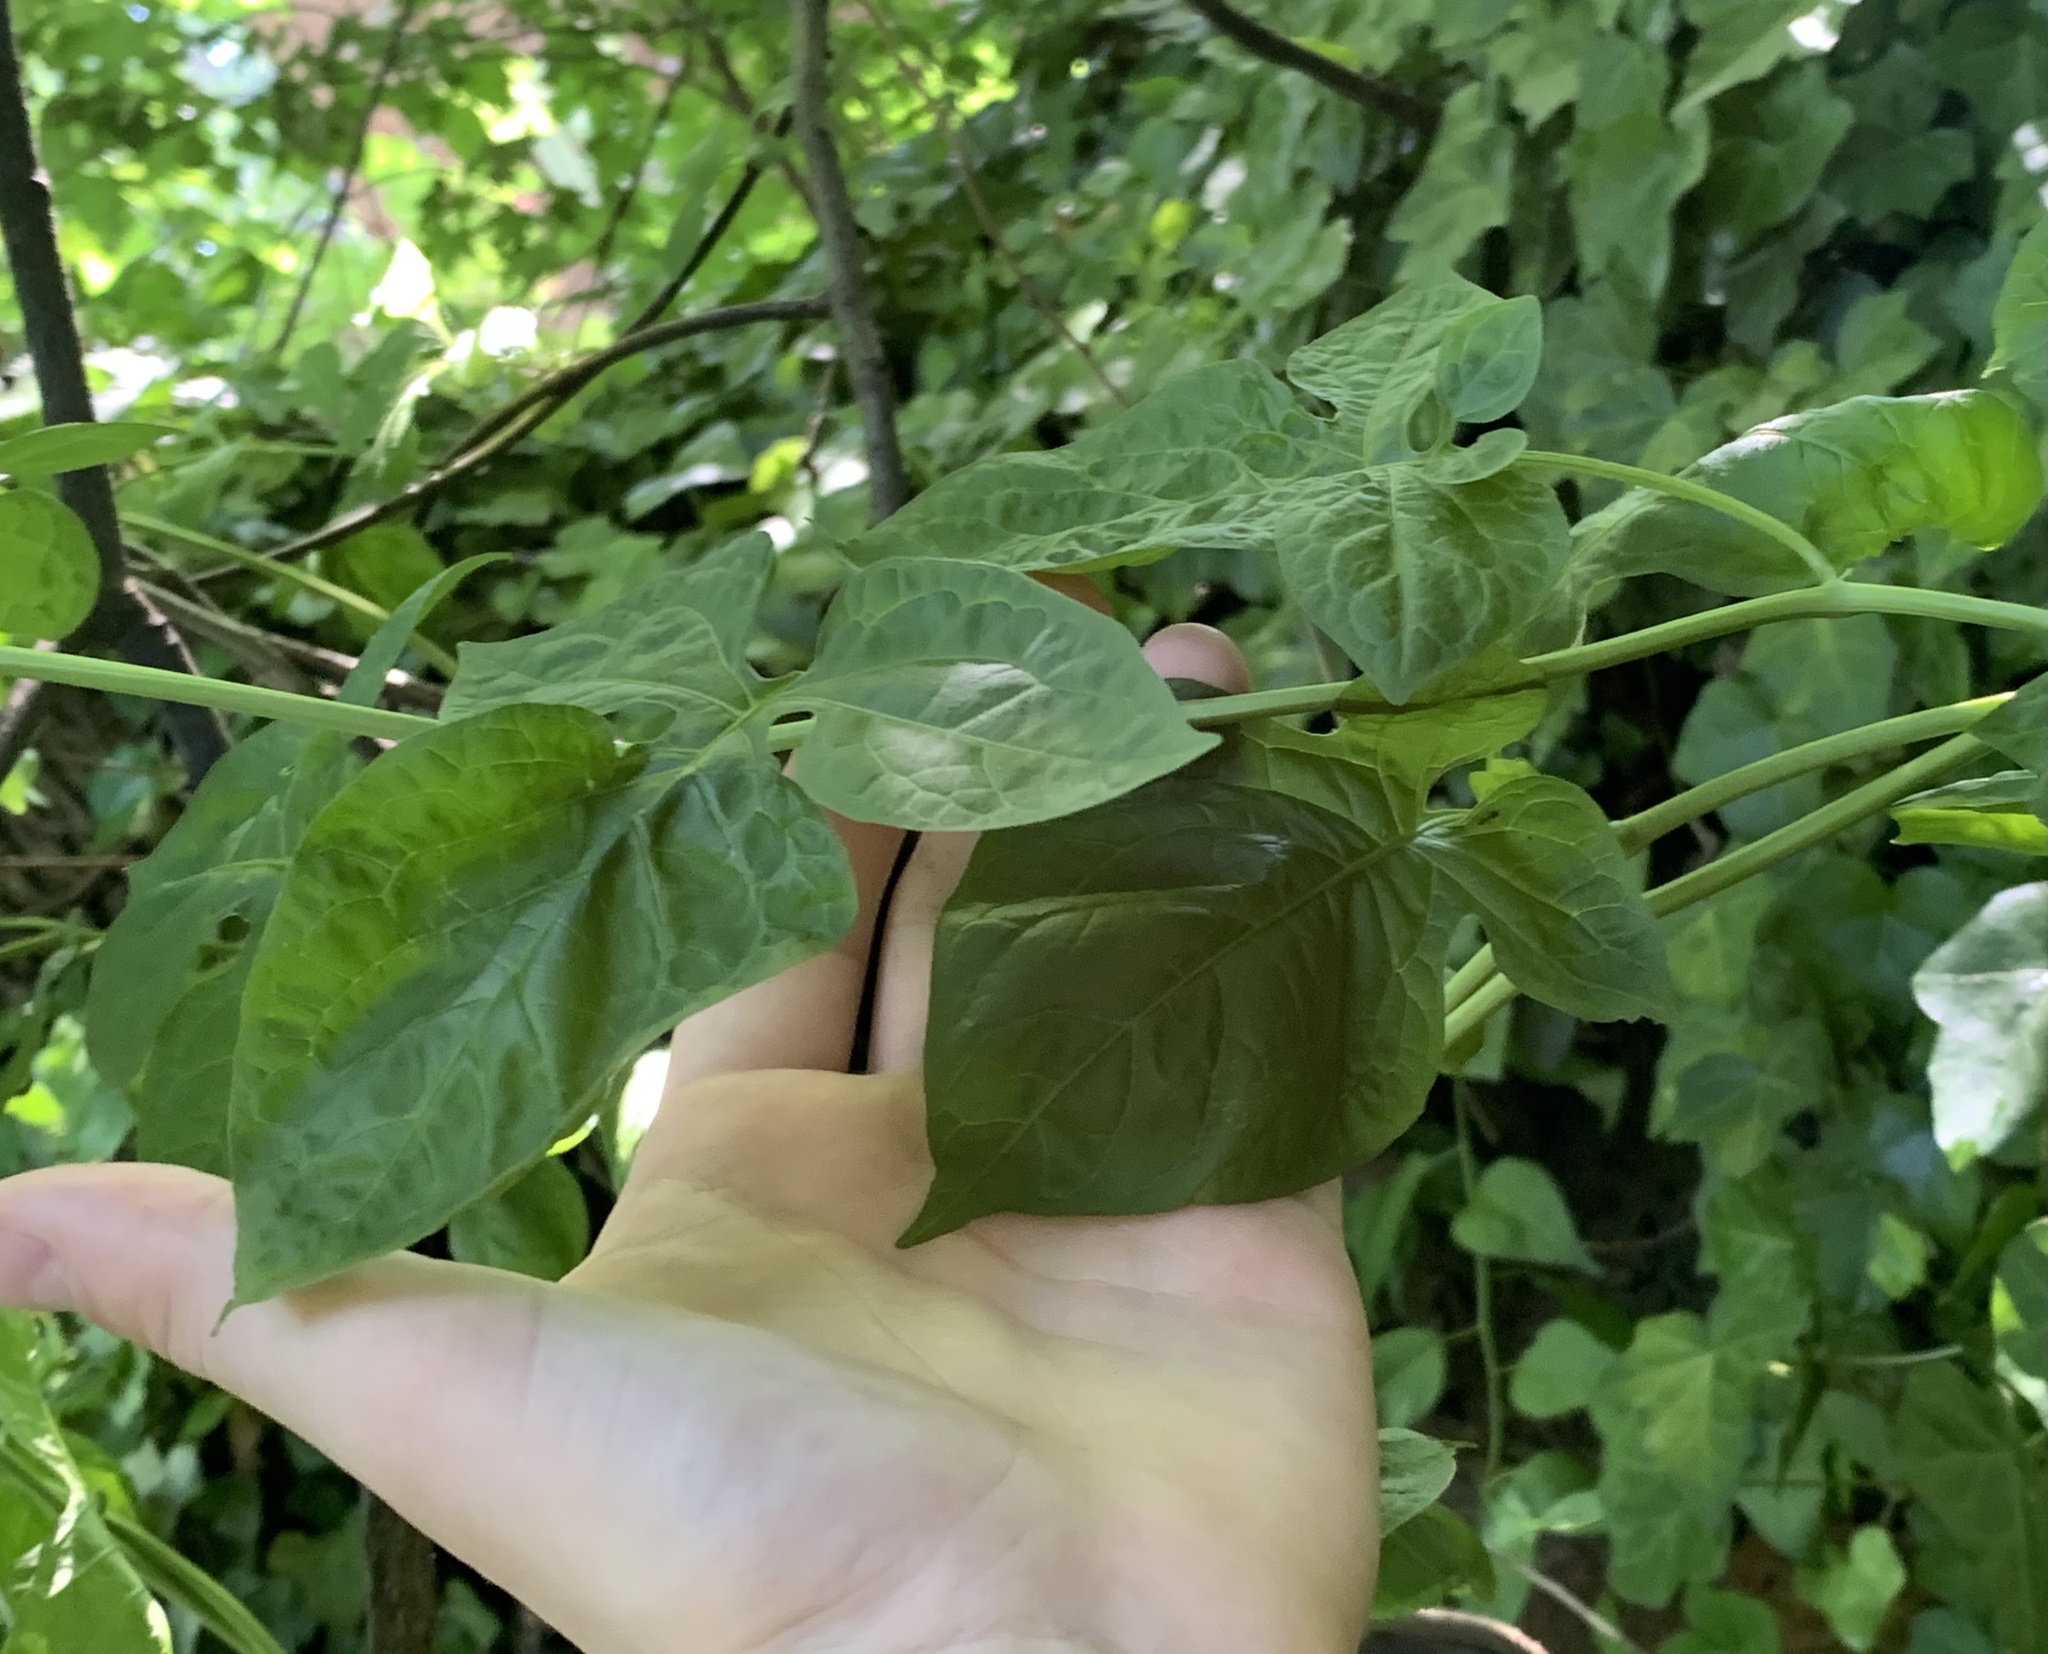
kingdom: Plantae
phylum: Tracheophyta
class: Magnoliopsida
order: Solanales
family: Solanaceae
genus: Solanum
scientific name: Solanum dulcamara
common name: Climbing nightshade
